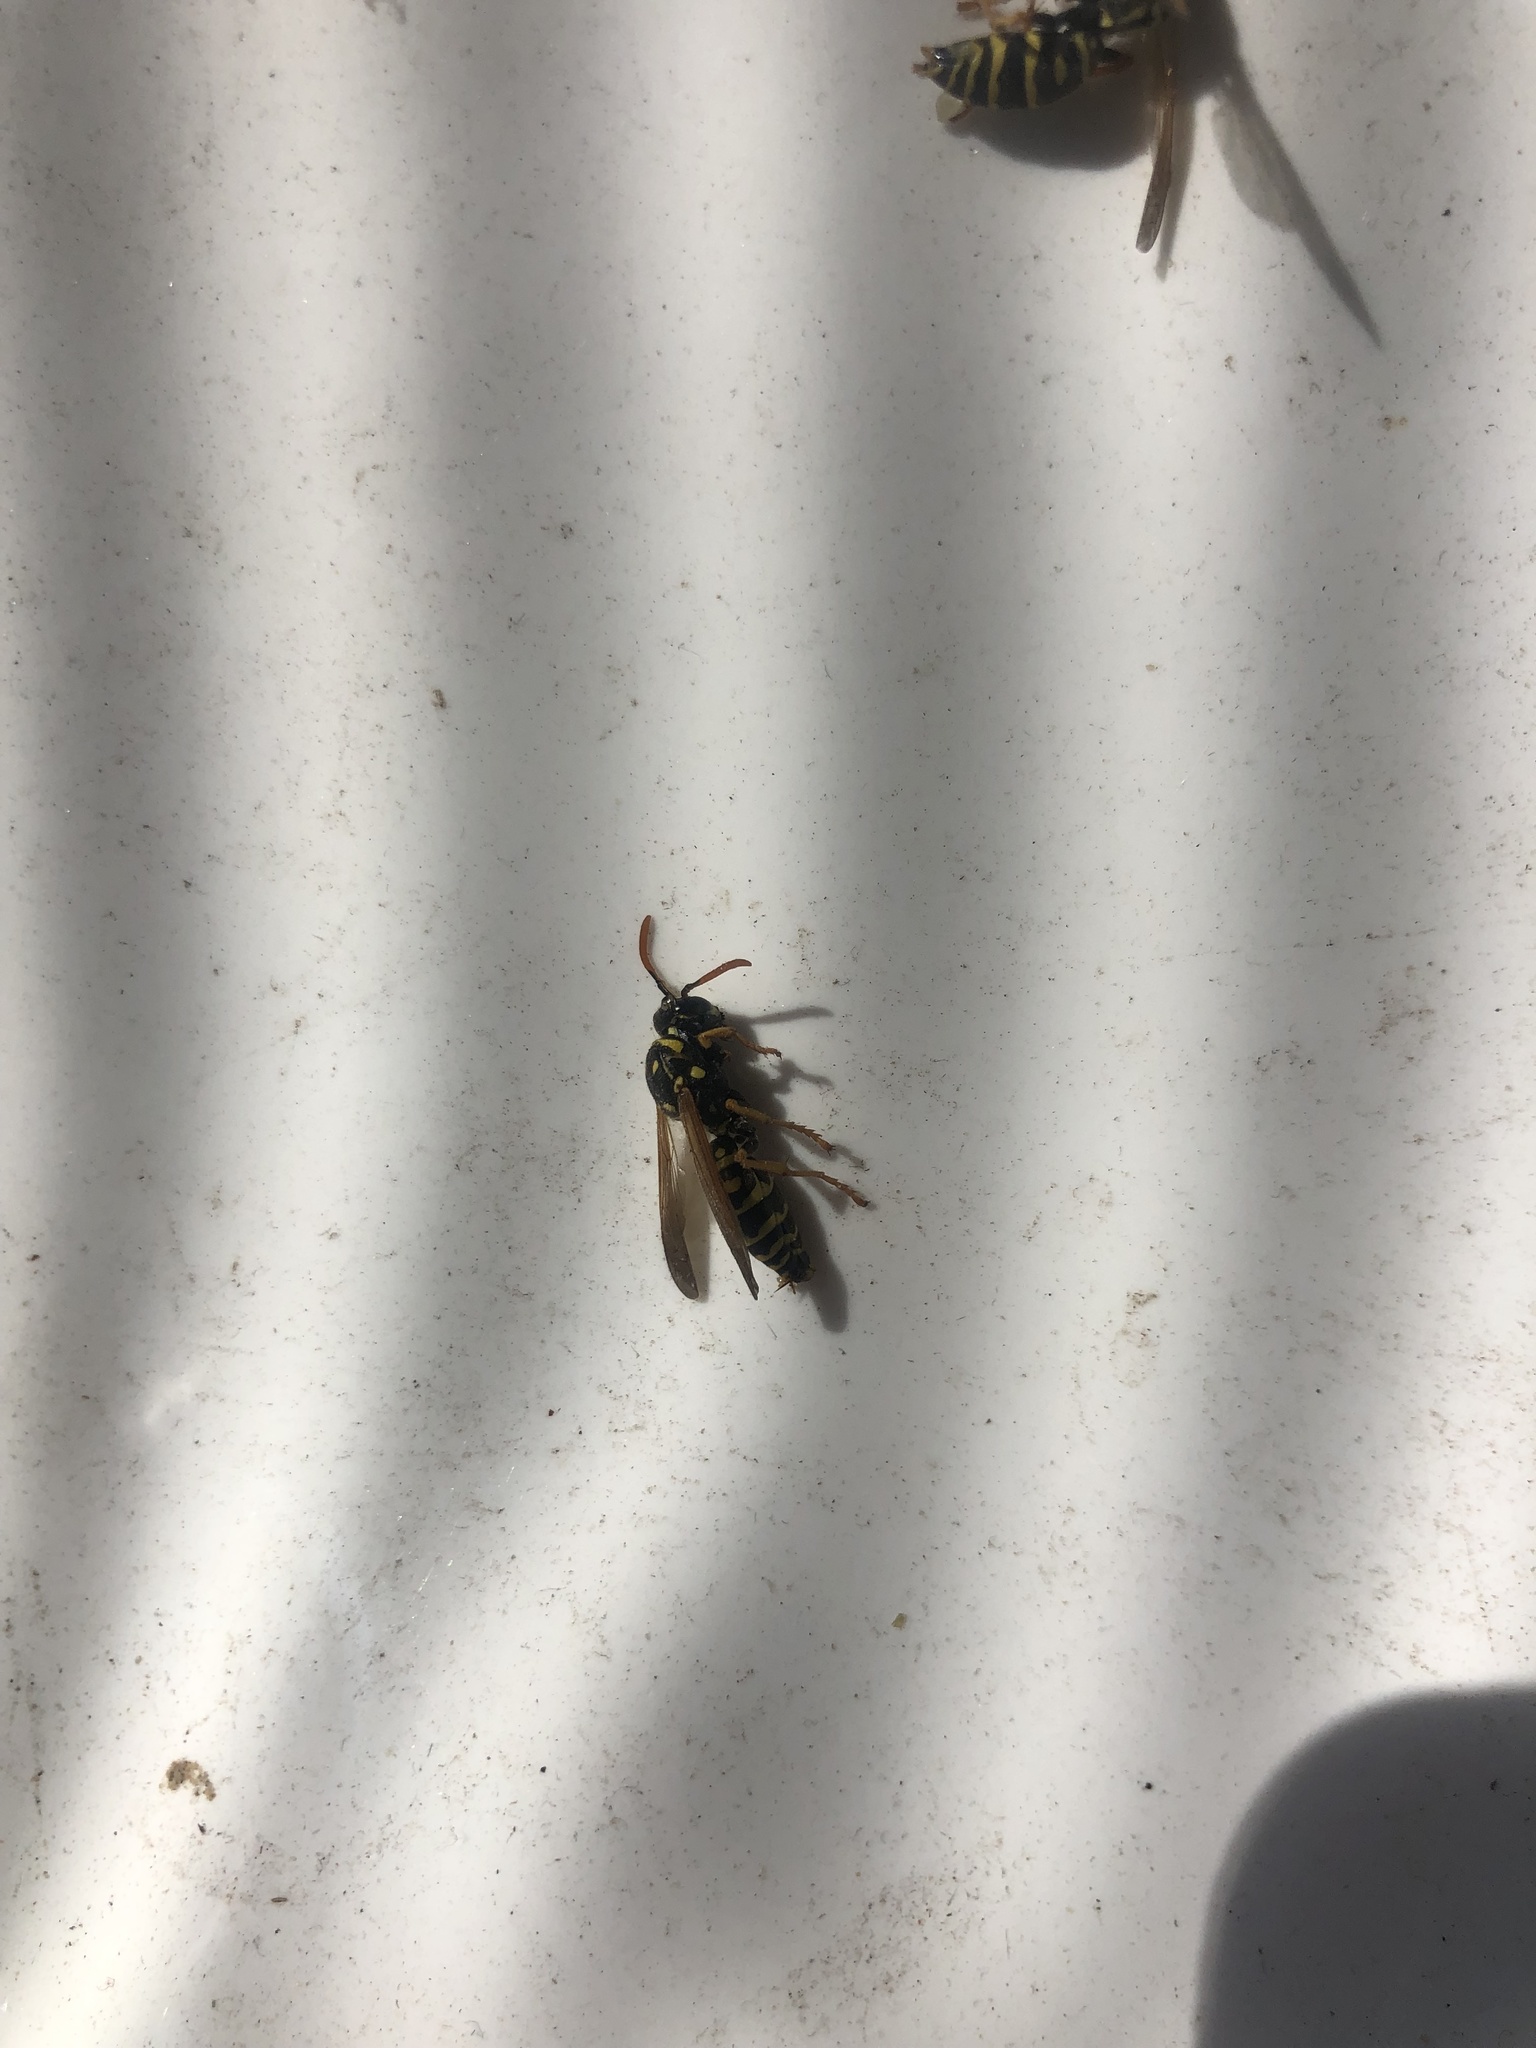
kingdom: Animalia
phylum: Arthropoda
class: Insecta
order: Hymenoptera
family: Eumenidae
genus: Polistes
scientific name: Polistes dominula
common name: Paper wasp
